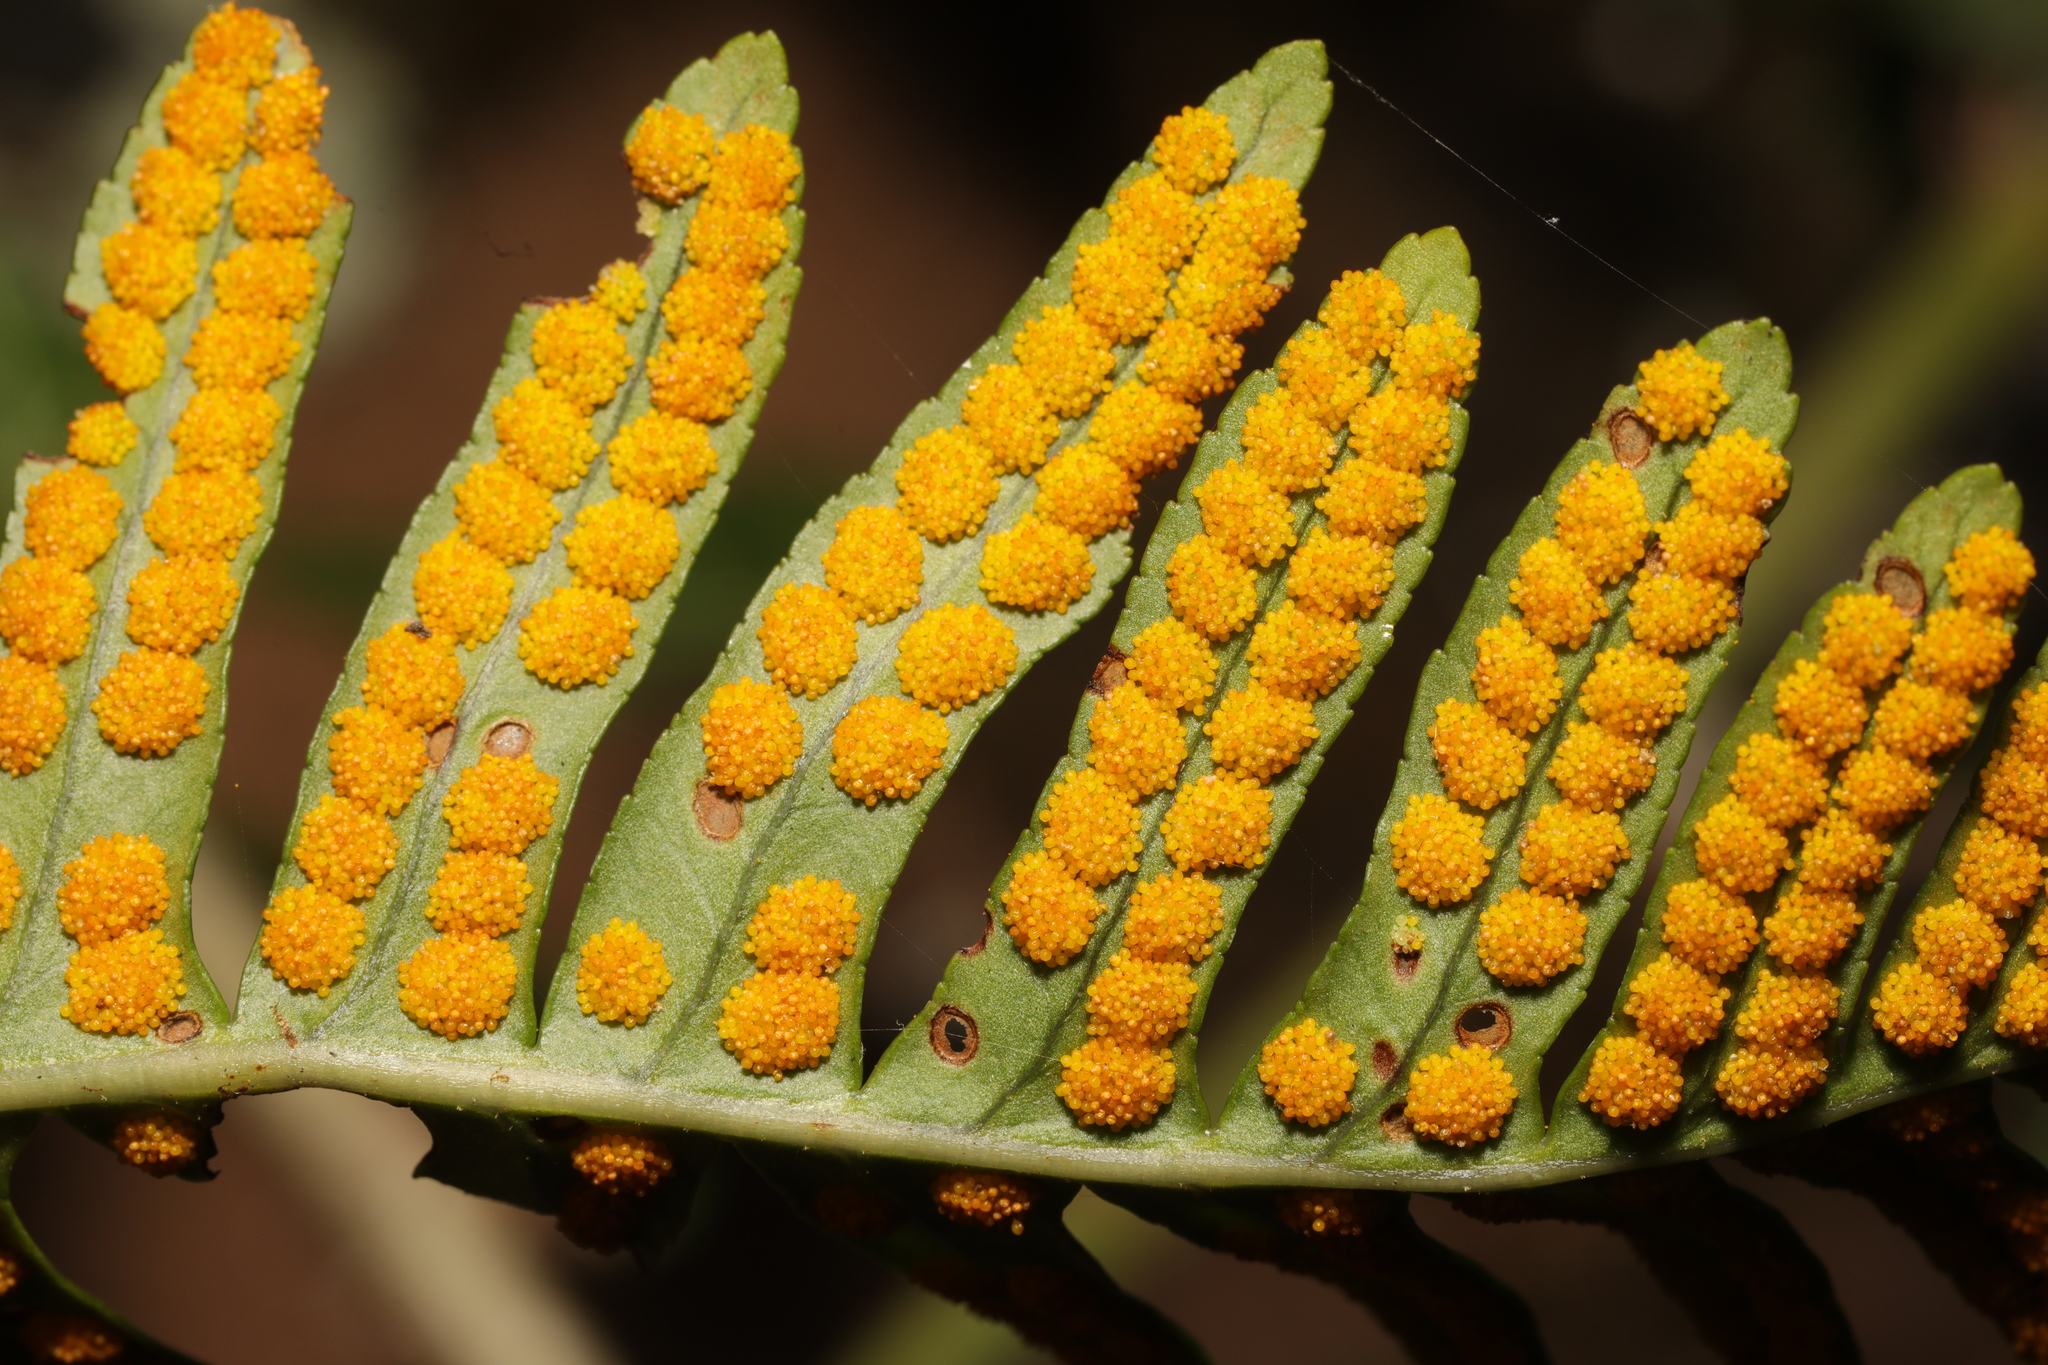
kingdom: Plantae
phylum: Tracheophyta
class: Polypodiopsida
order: Polypodiales
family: Polypodiaceae
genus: Polypodium
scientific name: Polypodium vulgare
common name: Common polypody
